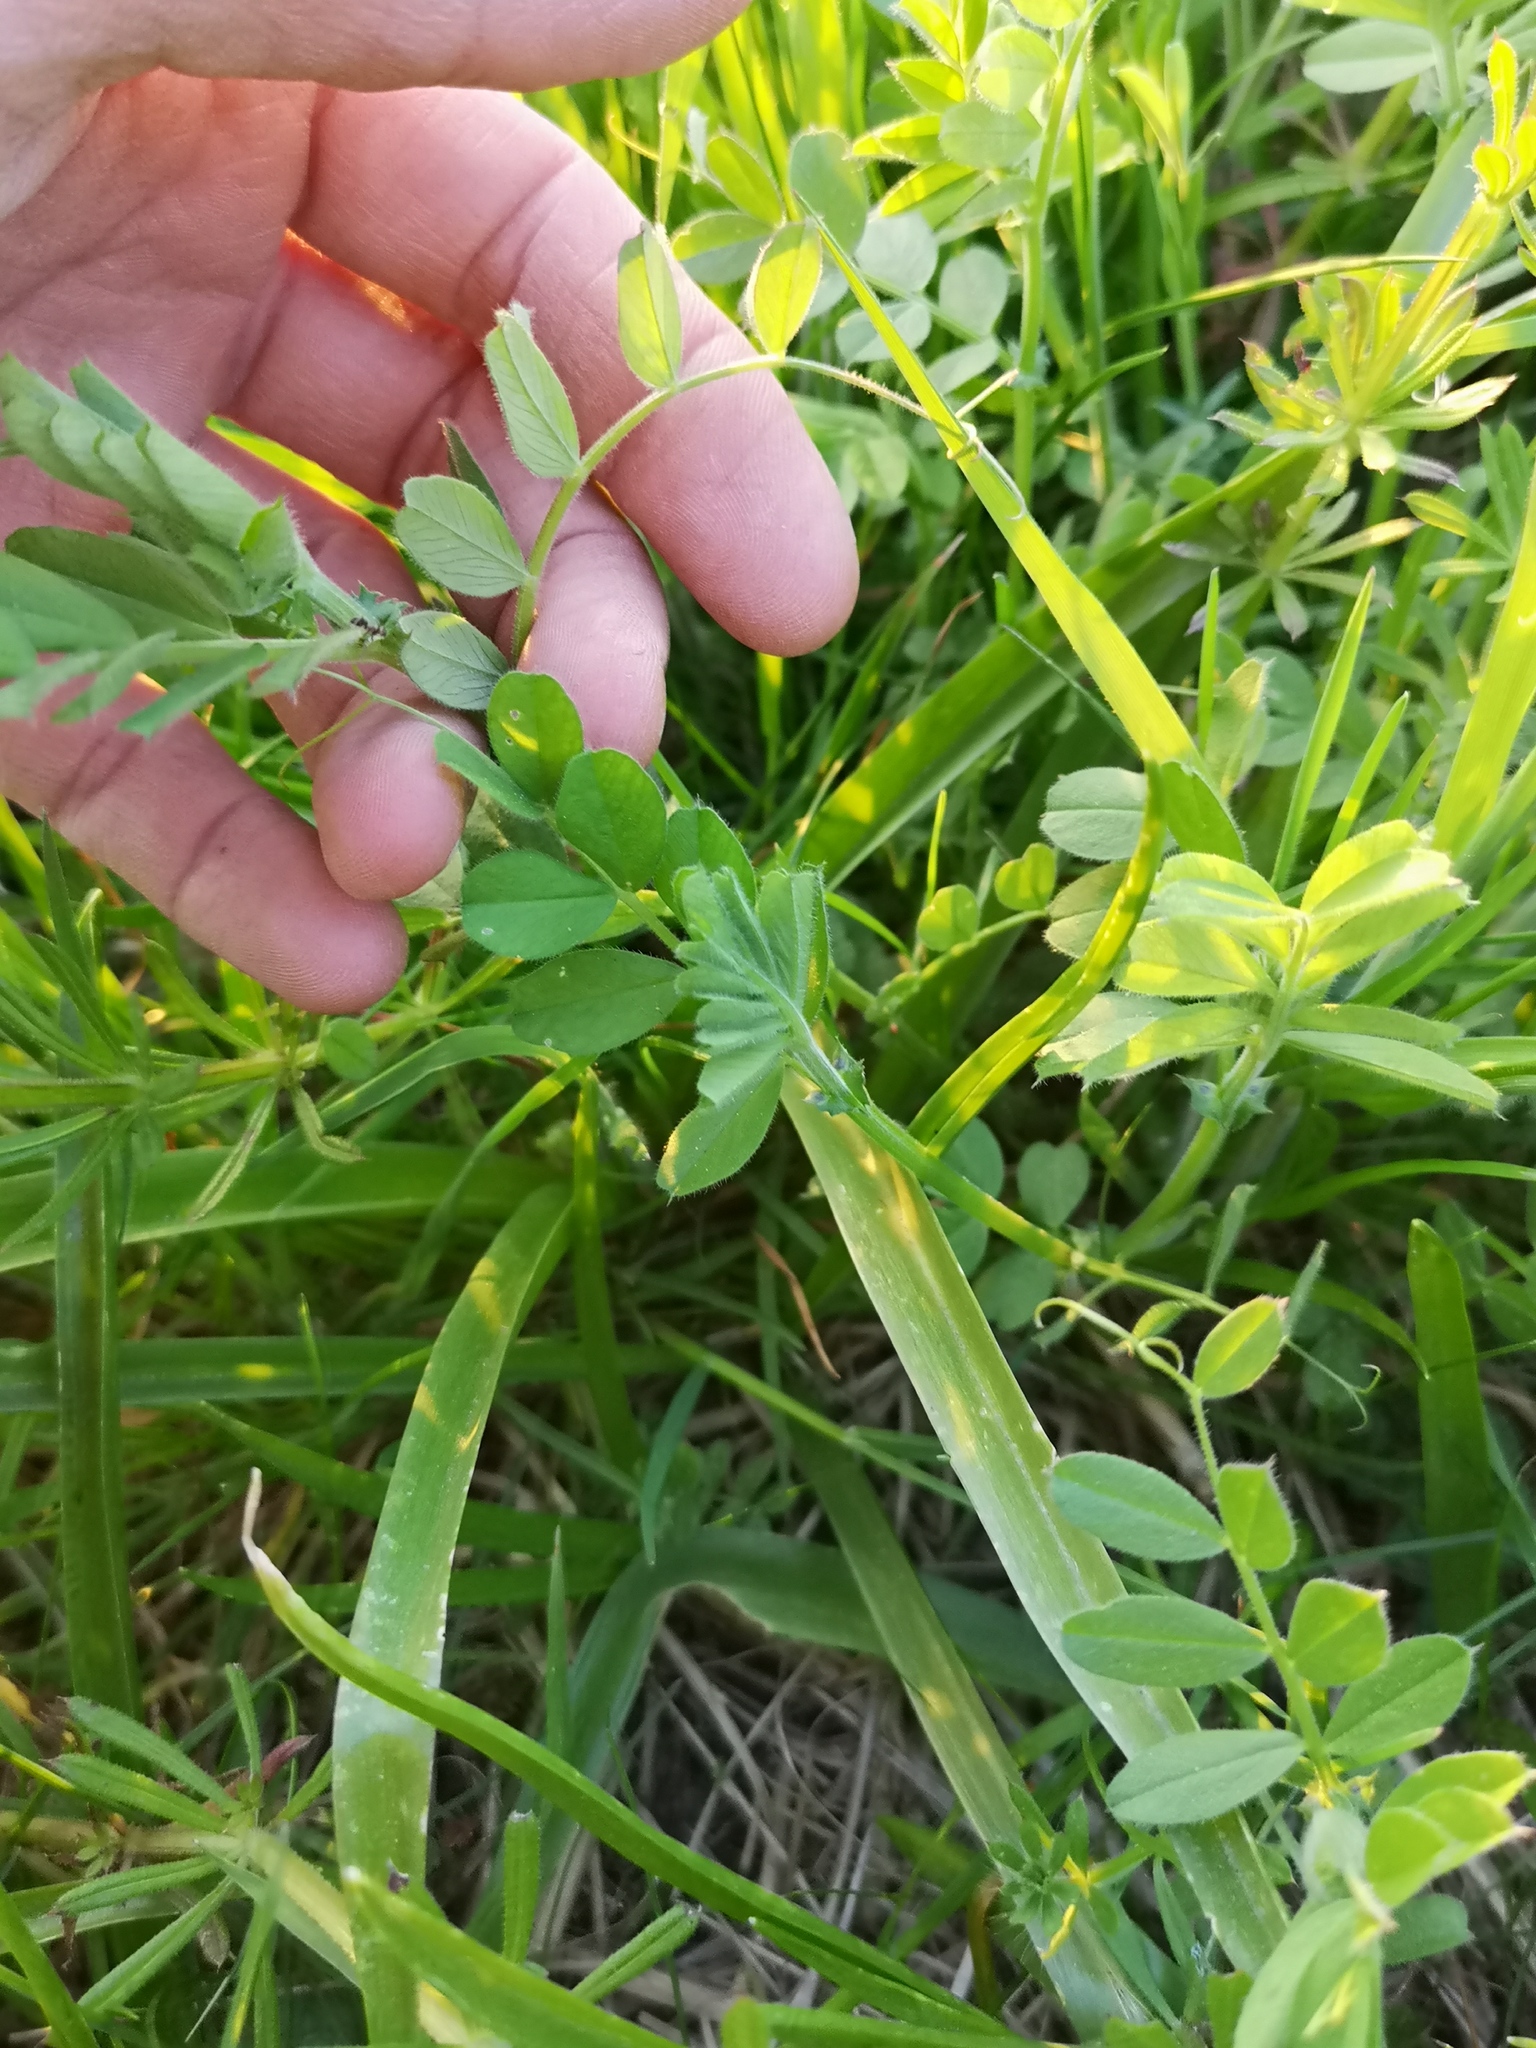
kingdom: Plantae
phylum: Tracheophyta
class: Magnoliopsida
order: Fabales
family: Fabaceae
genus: Vicia
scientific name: Vicia sativa
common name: Garden vetch
